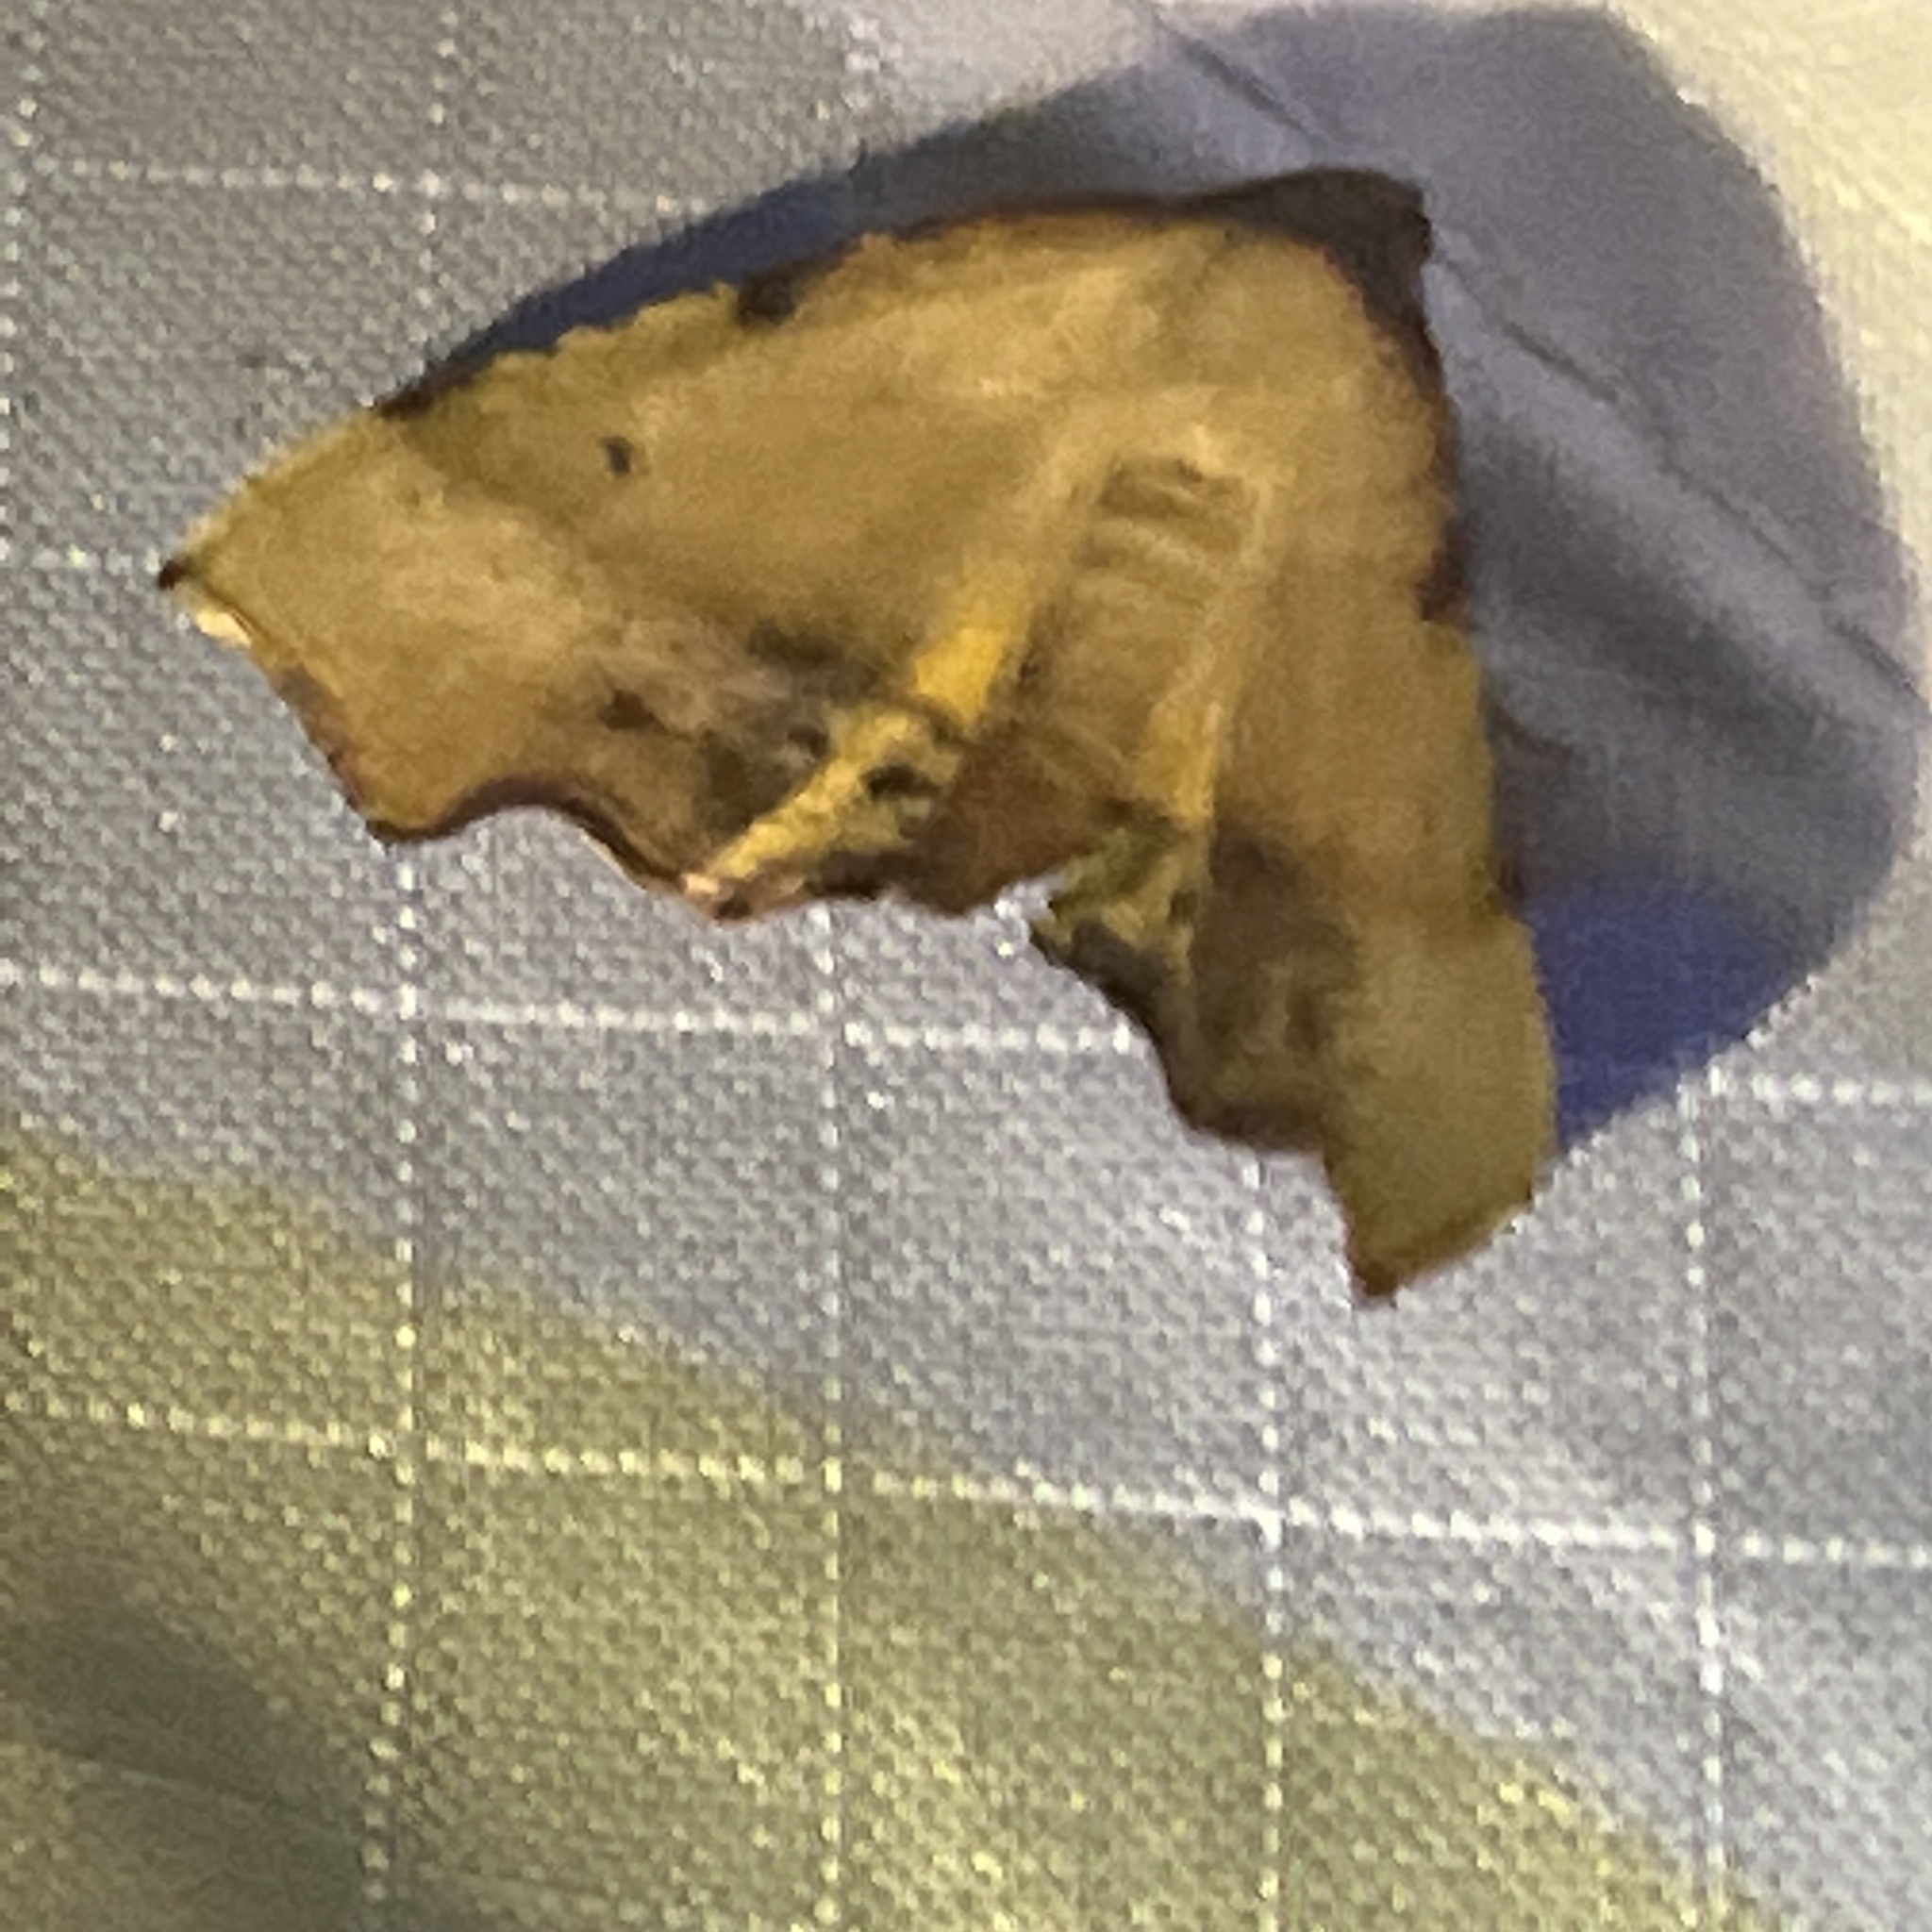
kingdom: Animalia
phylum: Arthropoda
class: Insecta
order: Lepidoptera
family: Geometridae
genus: Plagodis
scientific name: Plagodis fervidaria
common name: Fervid plagodis
